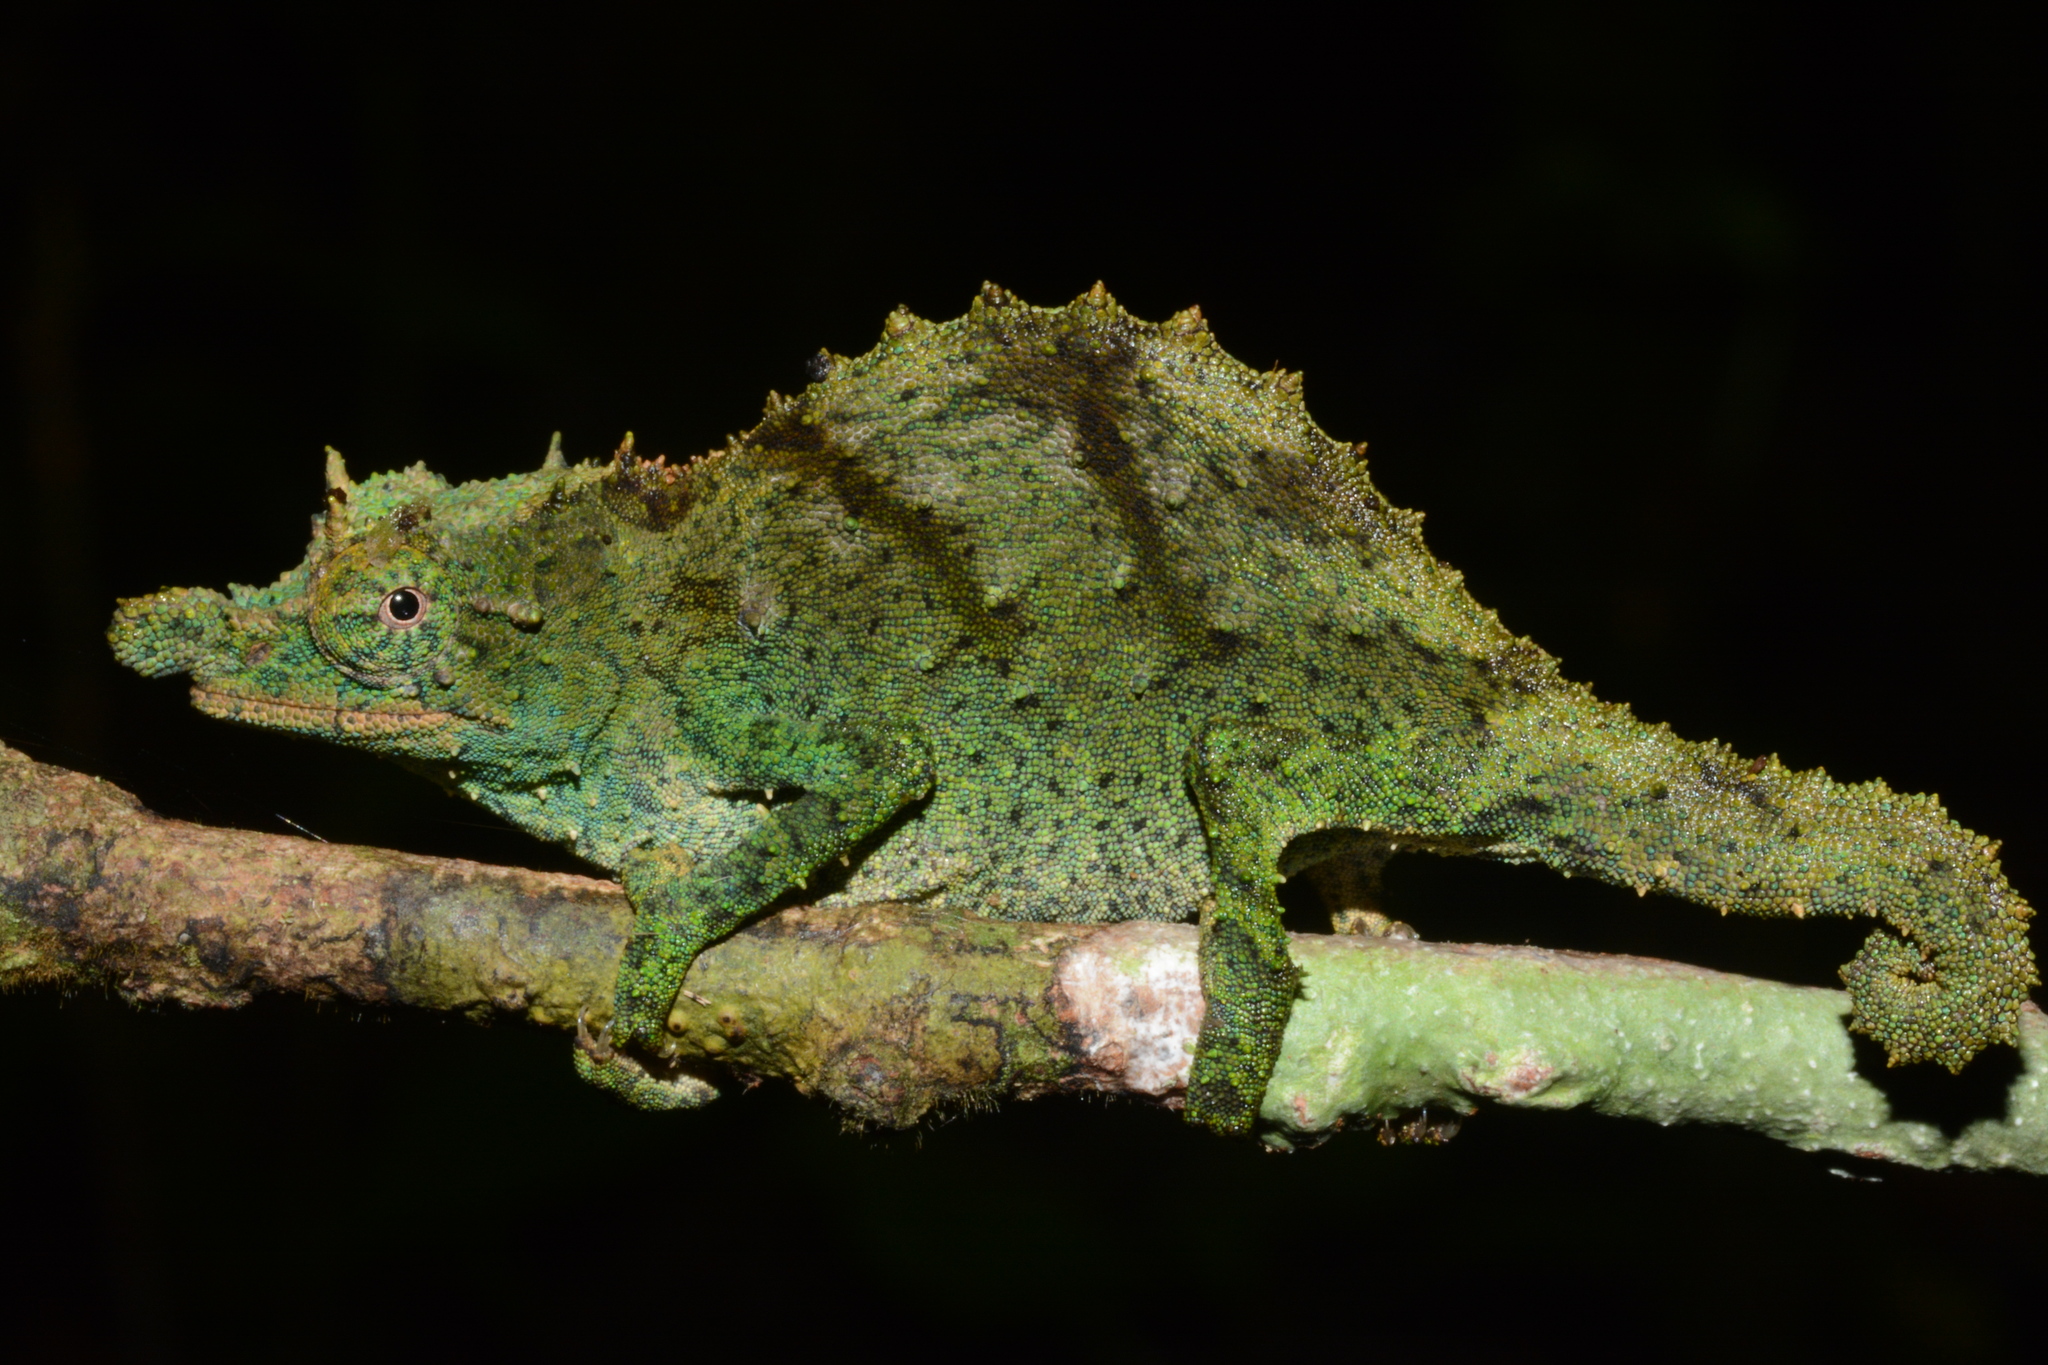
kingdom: Animalia
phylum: Chordata
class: Squamata
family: Chamaeleonidae
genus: Rhampholeon
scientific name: Rhampholeon acuminatus
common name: Nguru pygmy chameleon
